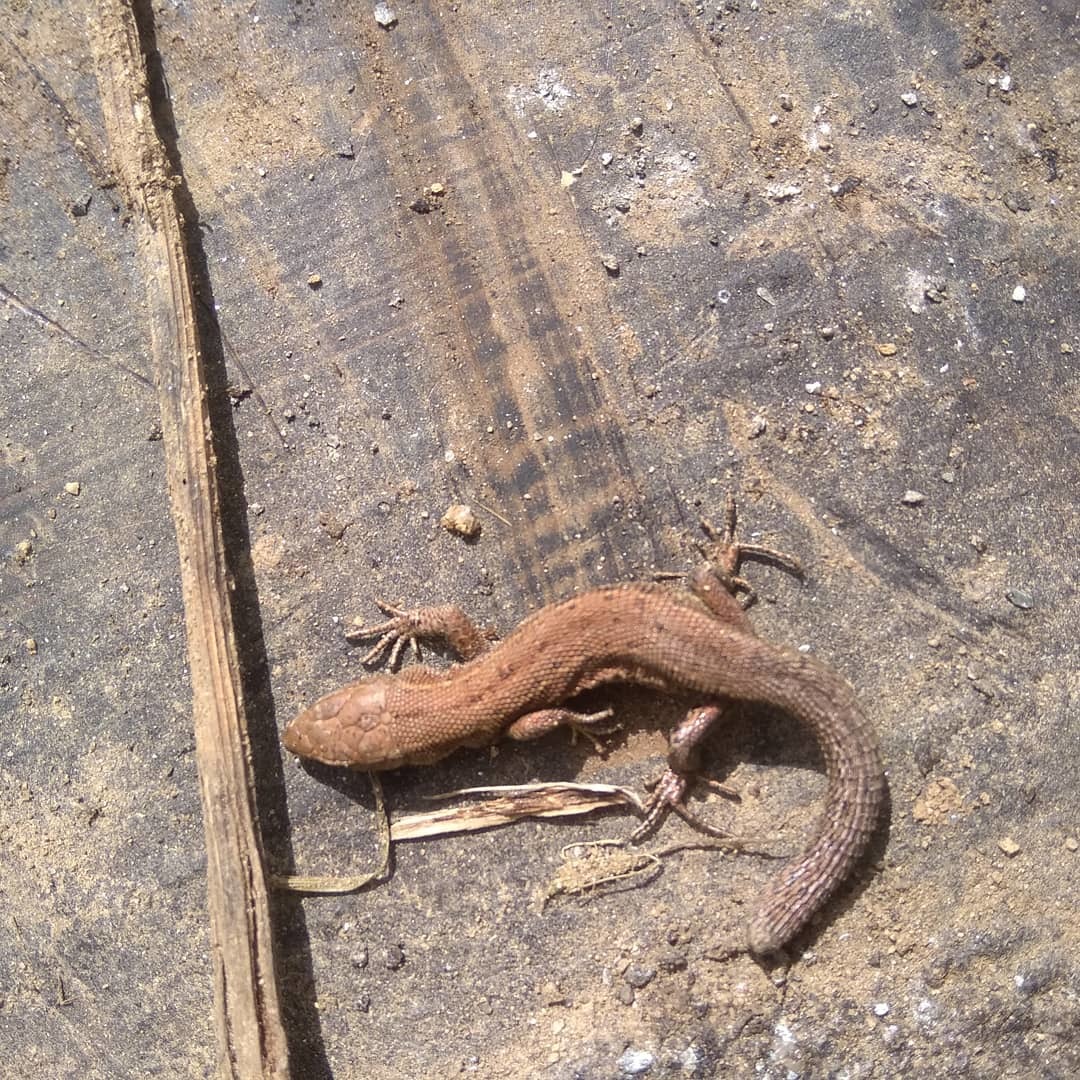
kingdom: Animalia
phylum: Chordata
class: Squamata
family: Lacertidae
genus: Zootoca
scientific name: Zootoca vivipara
